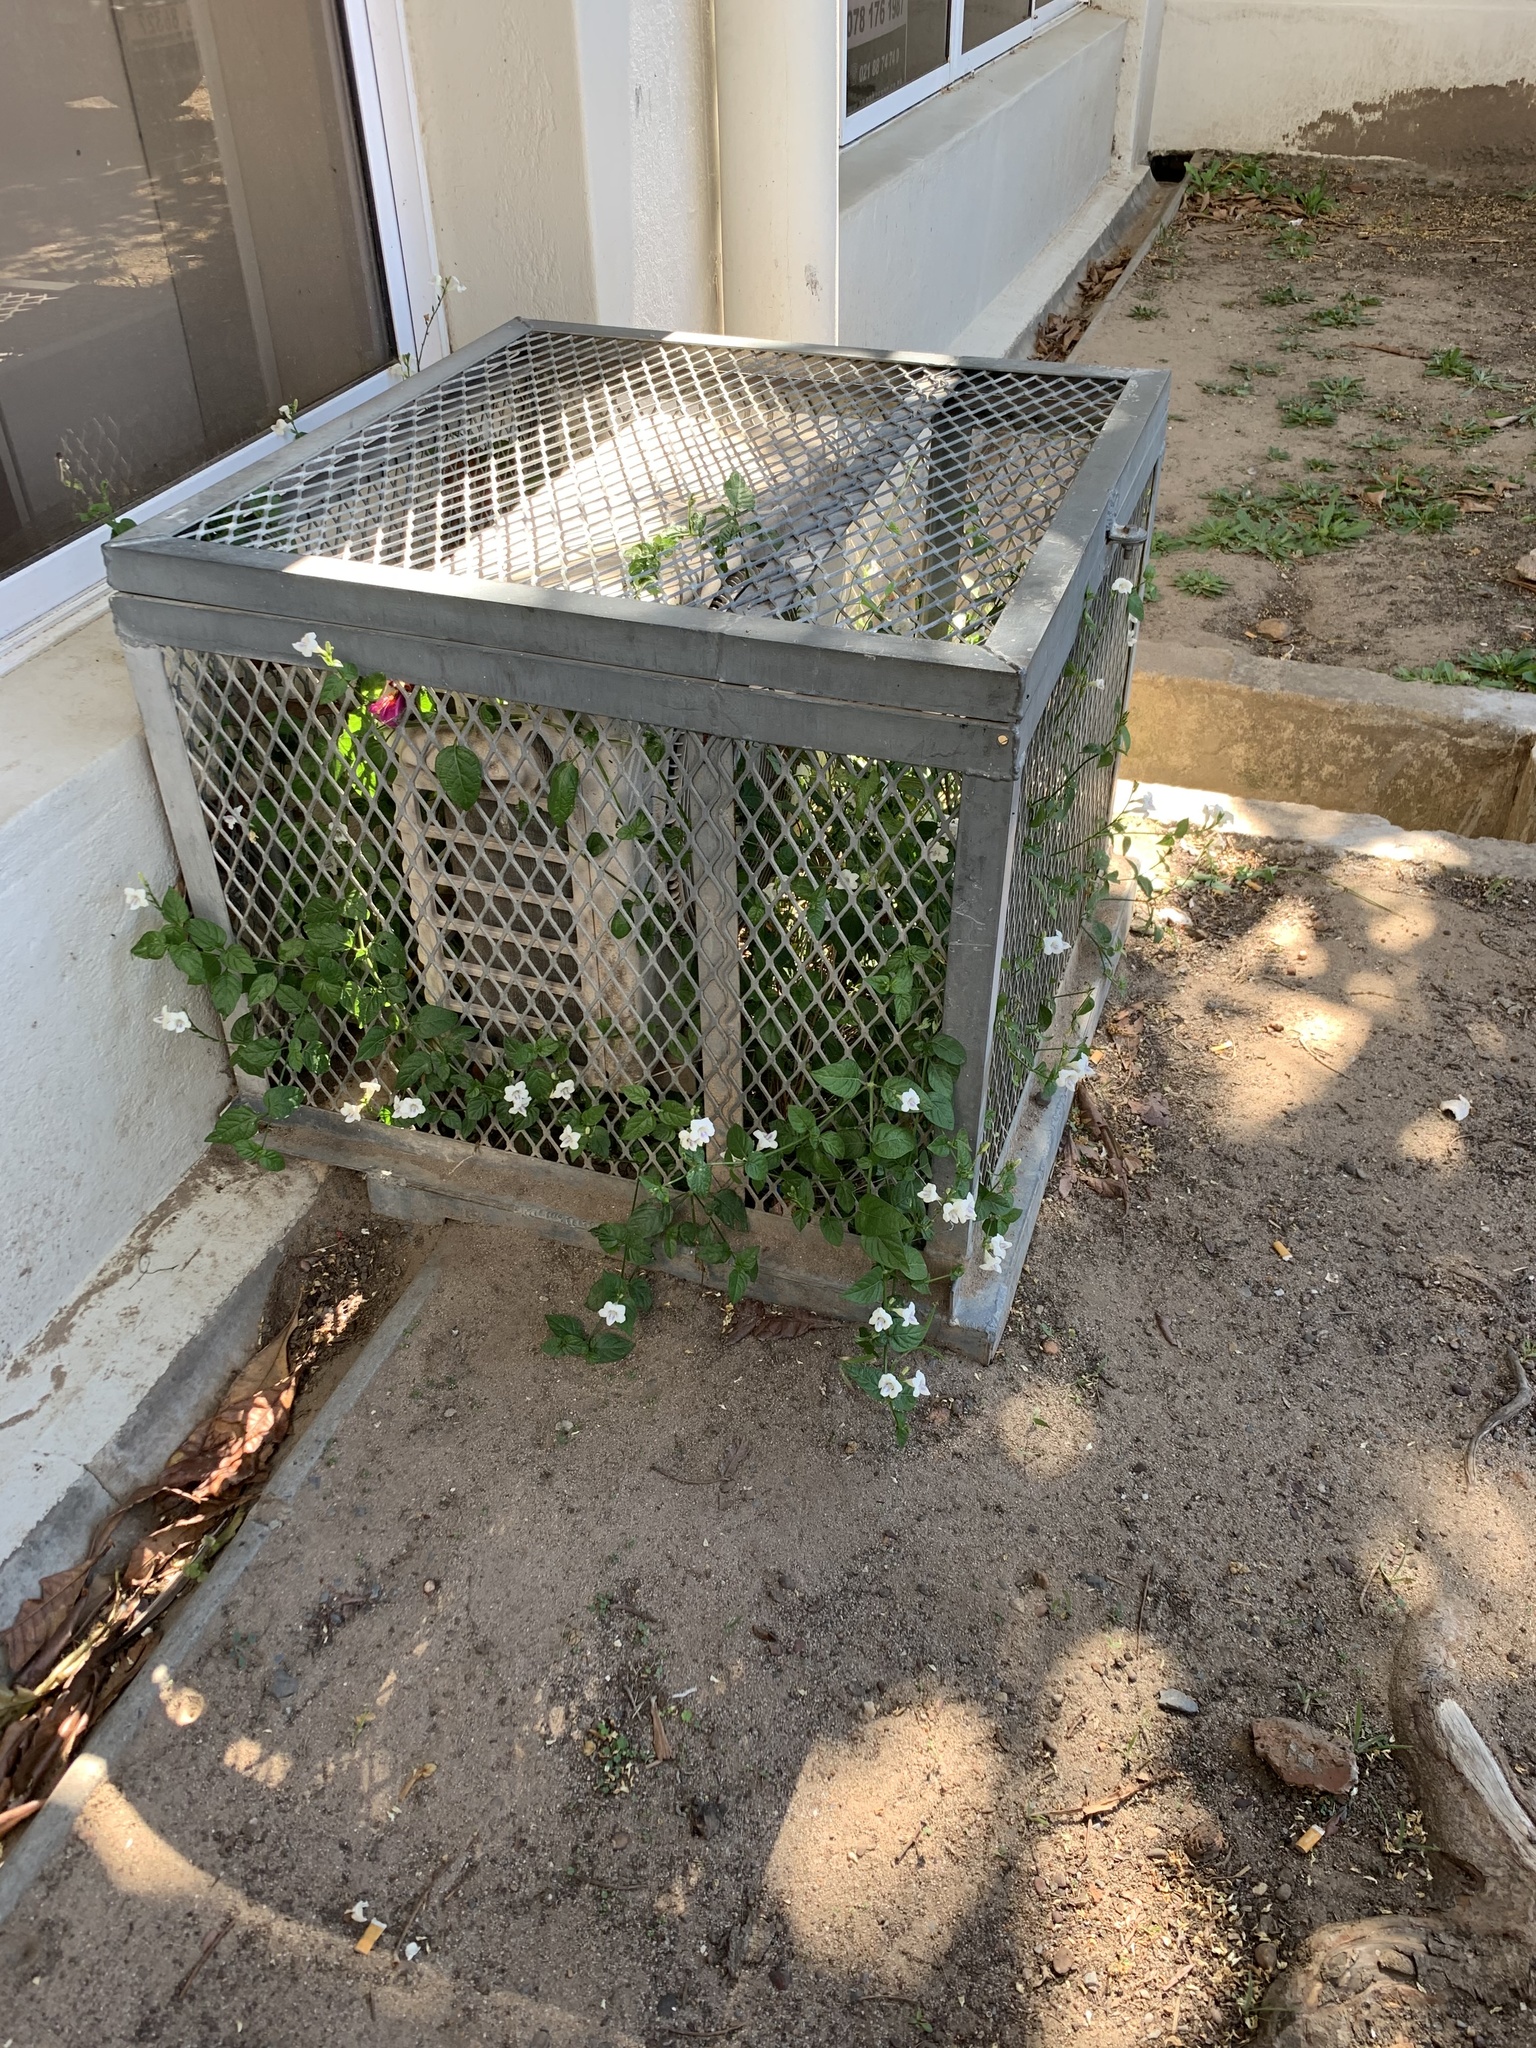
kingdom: Plantae
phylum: Tracheophyta
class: Magnoliopsida
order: Lamiales
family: Acanthaceae
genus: Asystasia
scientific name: Asystasia intrusa
